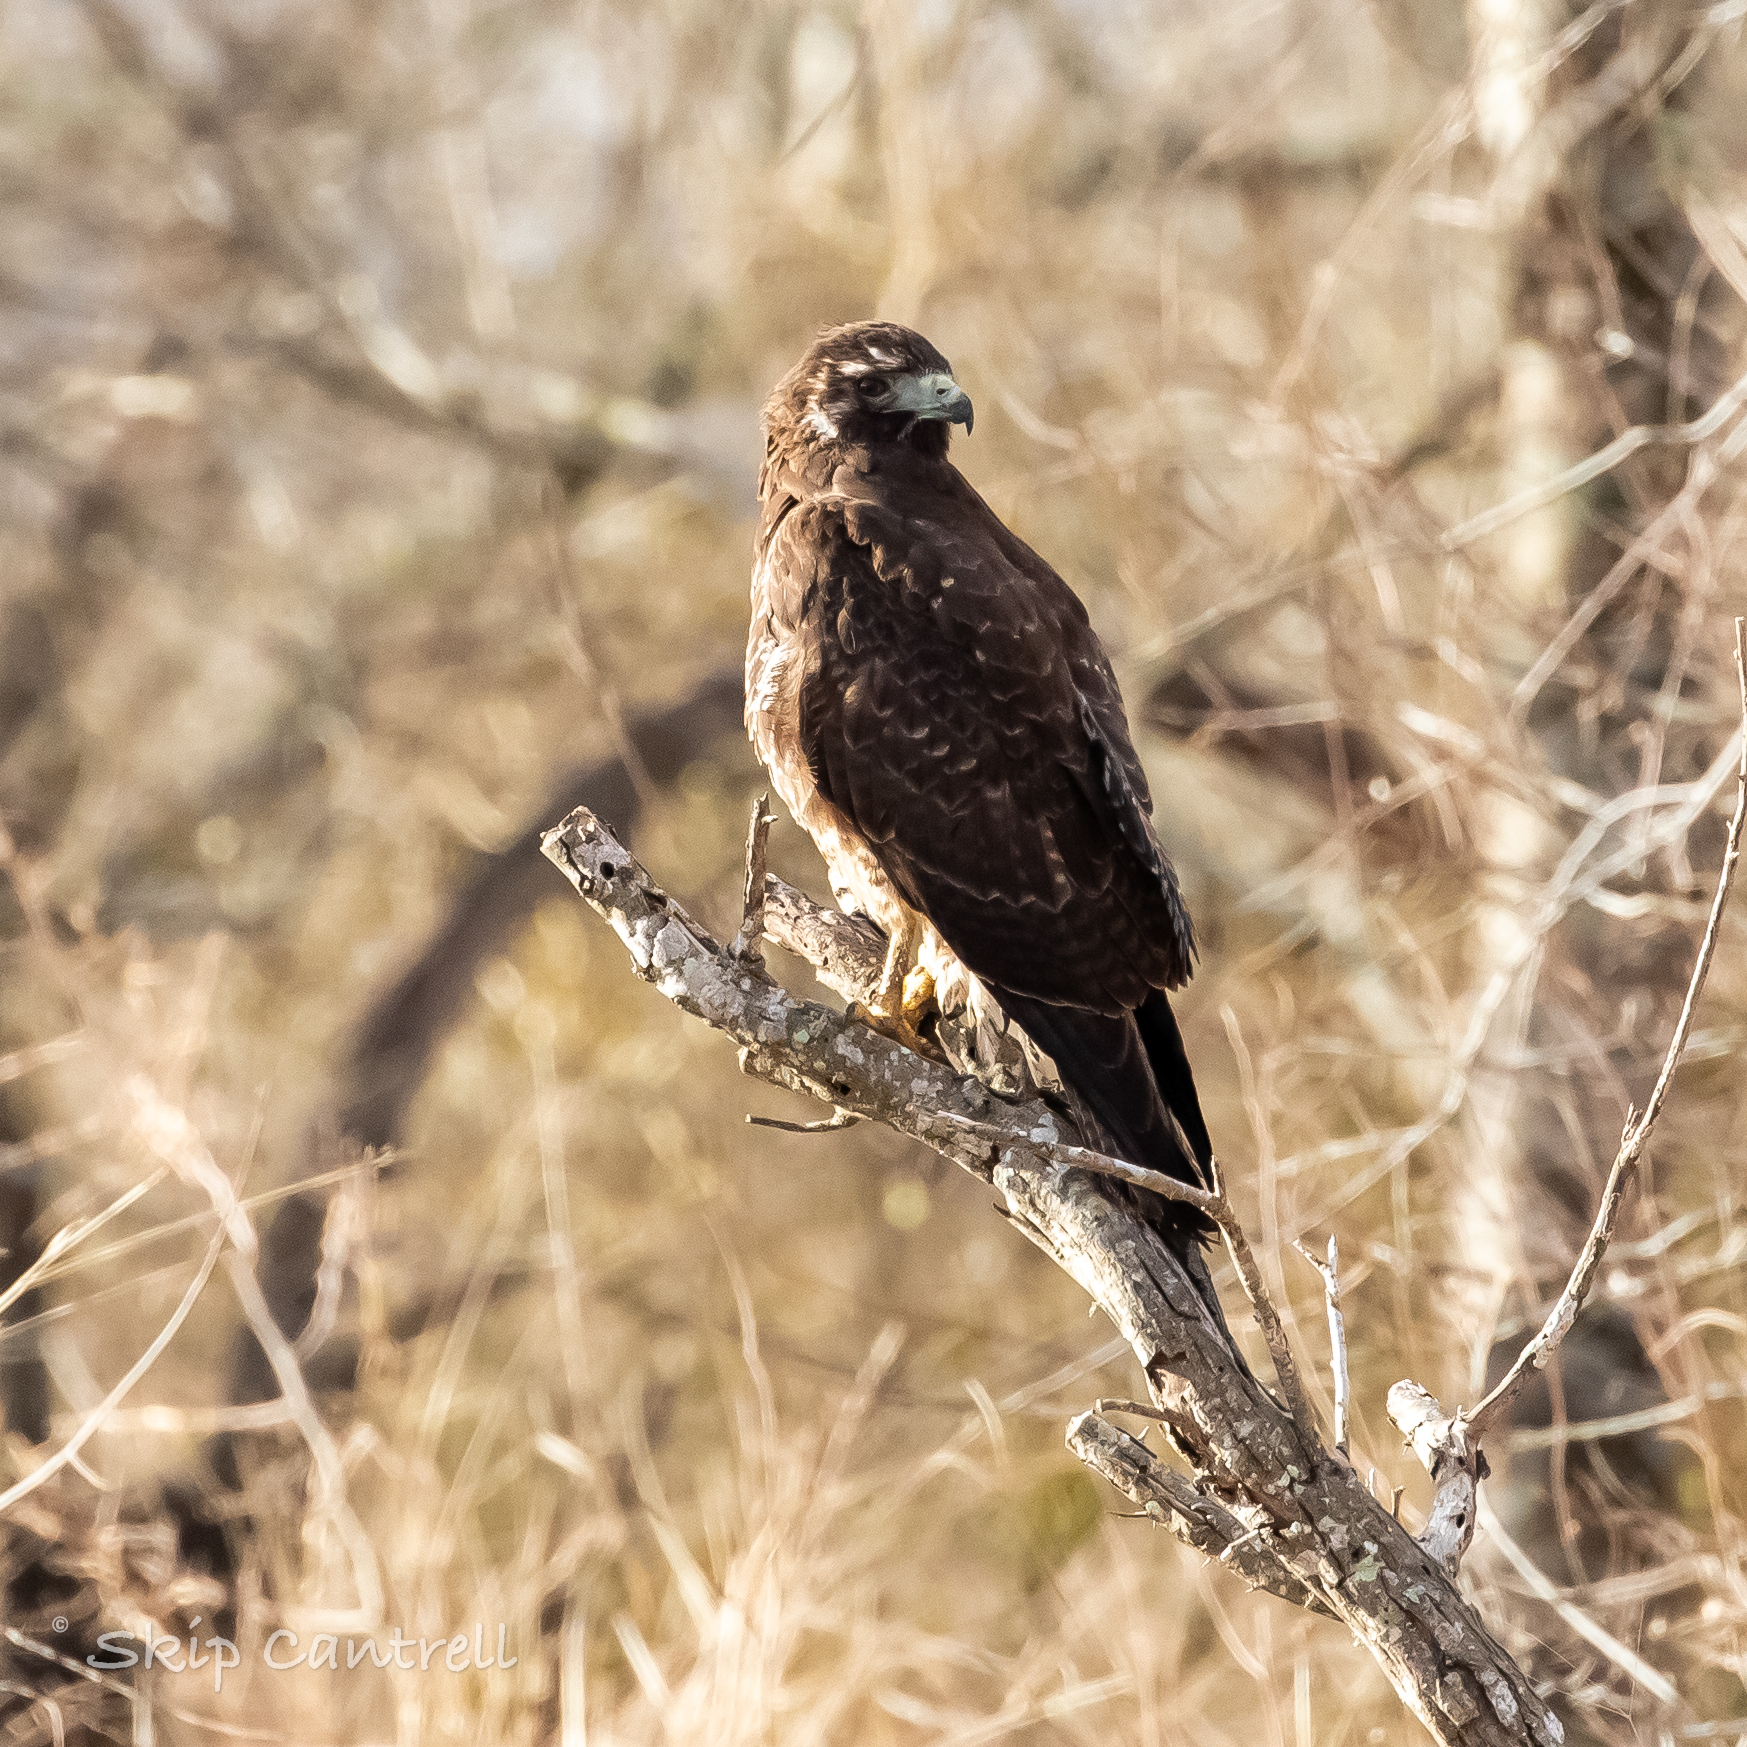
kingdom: Animalia
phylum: Chordata
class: Aves
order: Accipitriformes
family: Accipitridae
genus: Buteo
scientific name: Buteo albicaudatus
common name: White-tailed hawk
